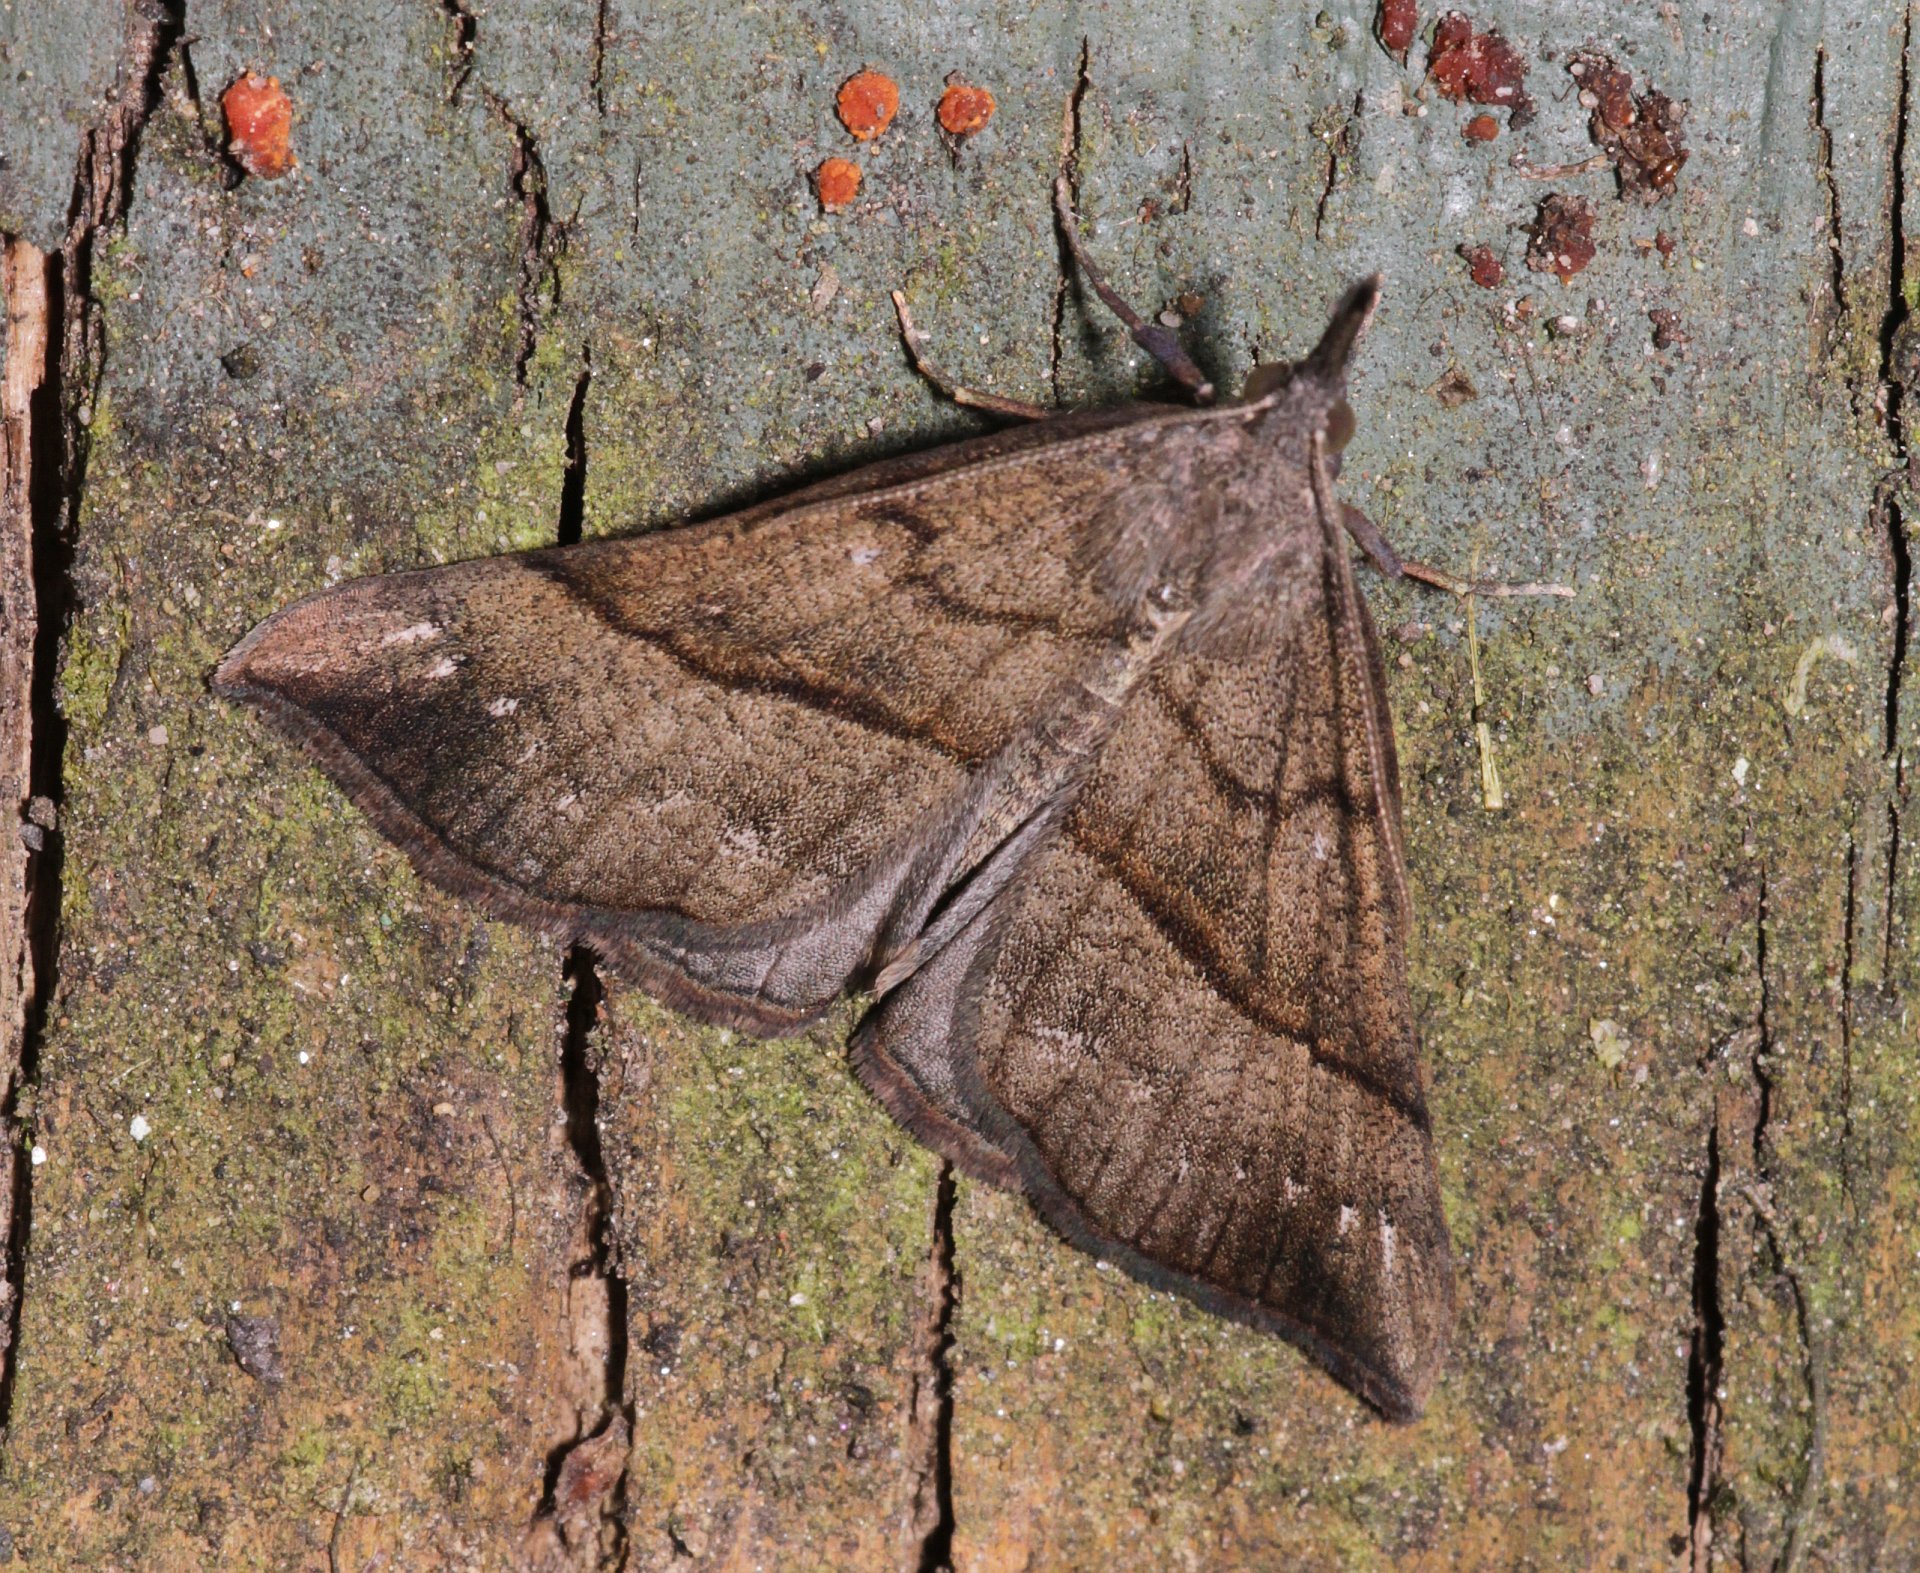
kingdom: Animalia
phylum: Arthropoda
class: Insecta
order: Lepidoptera
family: Erebidae
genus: Hypena
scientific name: Hypena proboscidalis
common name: Snout
